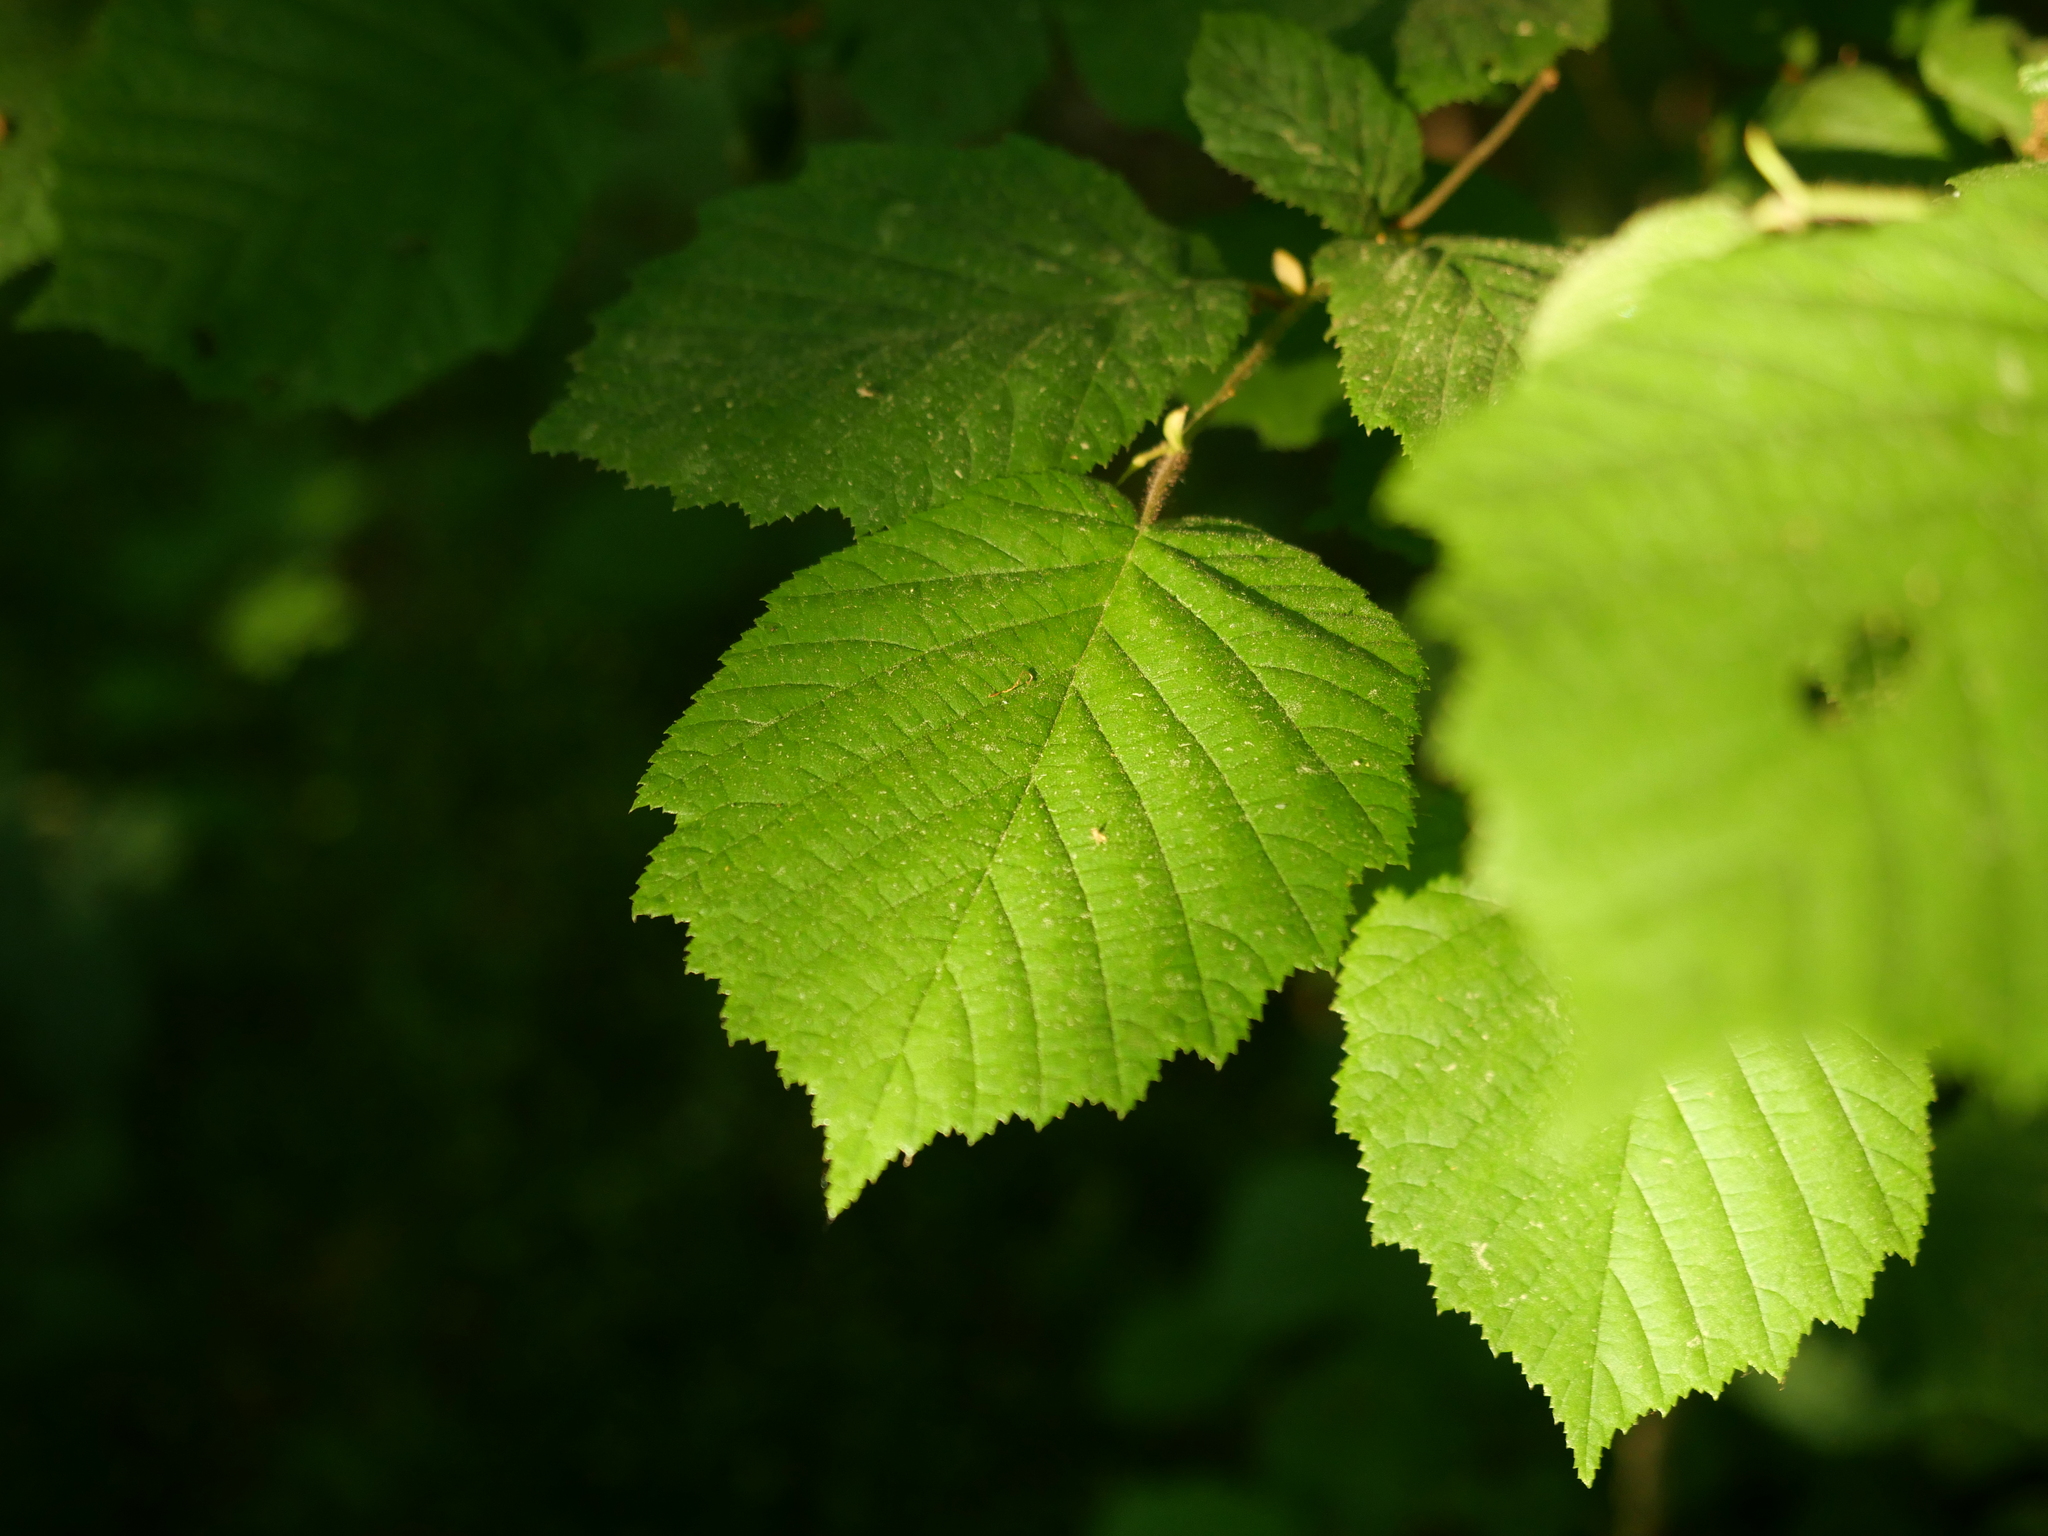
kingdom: Plantae
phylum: Tracheophyta
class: Magnoliopsida
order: Fagales
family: Betulaceae
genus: Corylus
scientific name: Corylus avellana
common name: European hazel
